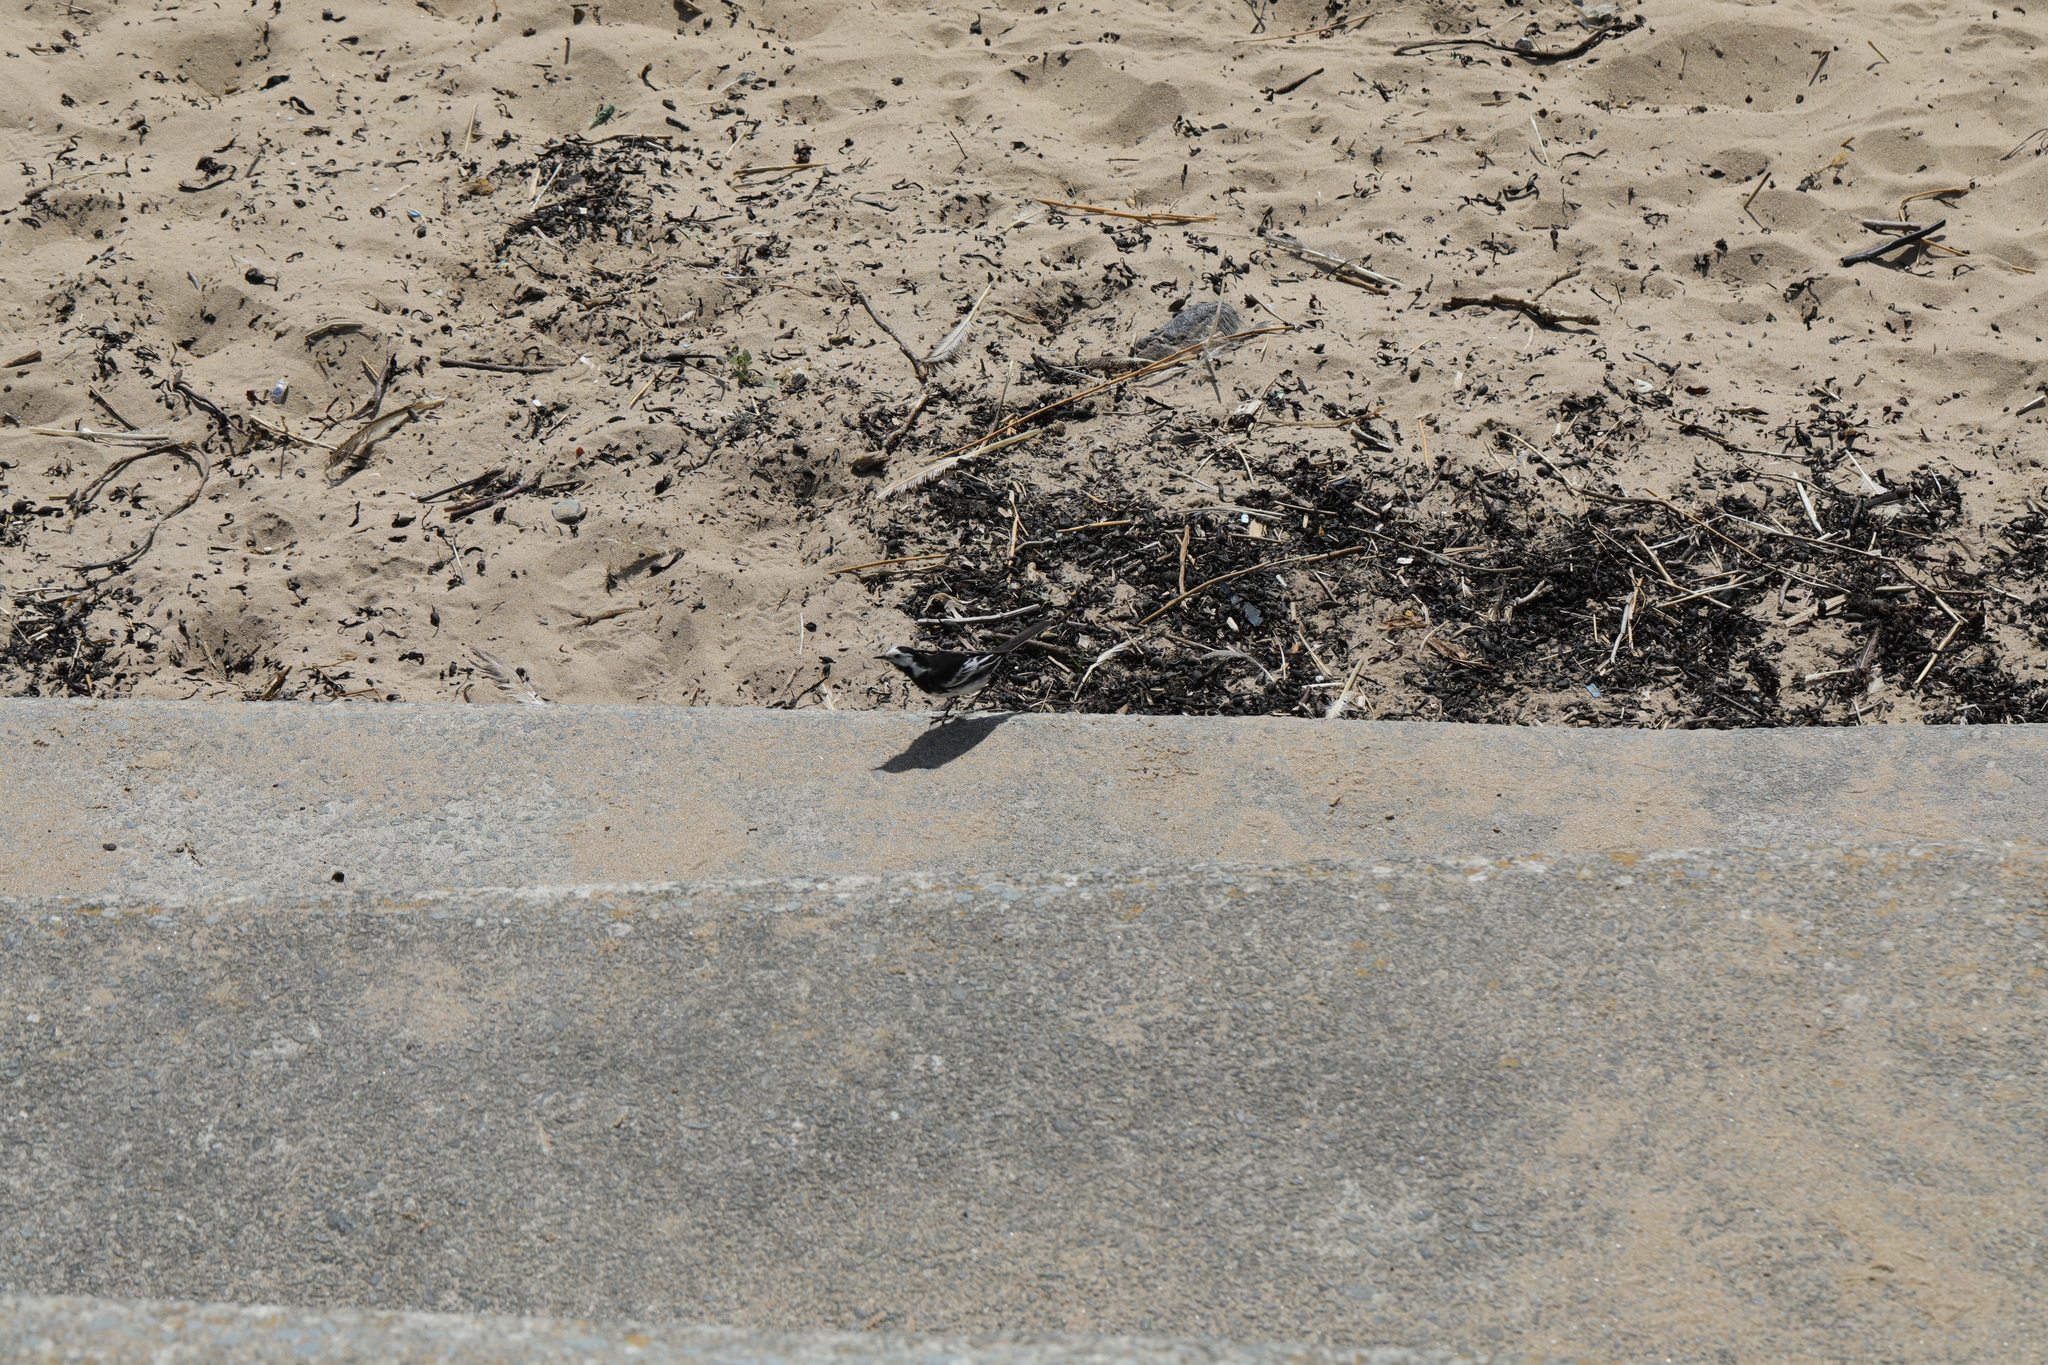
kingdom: Animalia
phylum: Chordata
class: Aves
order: Passeriformes
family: Motacillidae
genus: Motacilla
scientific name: Motacilla alba
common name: White wagtail
